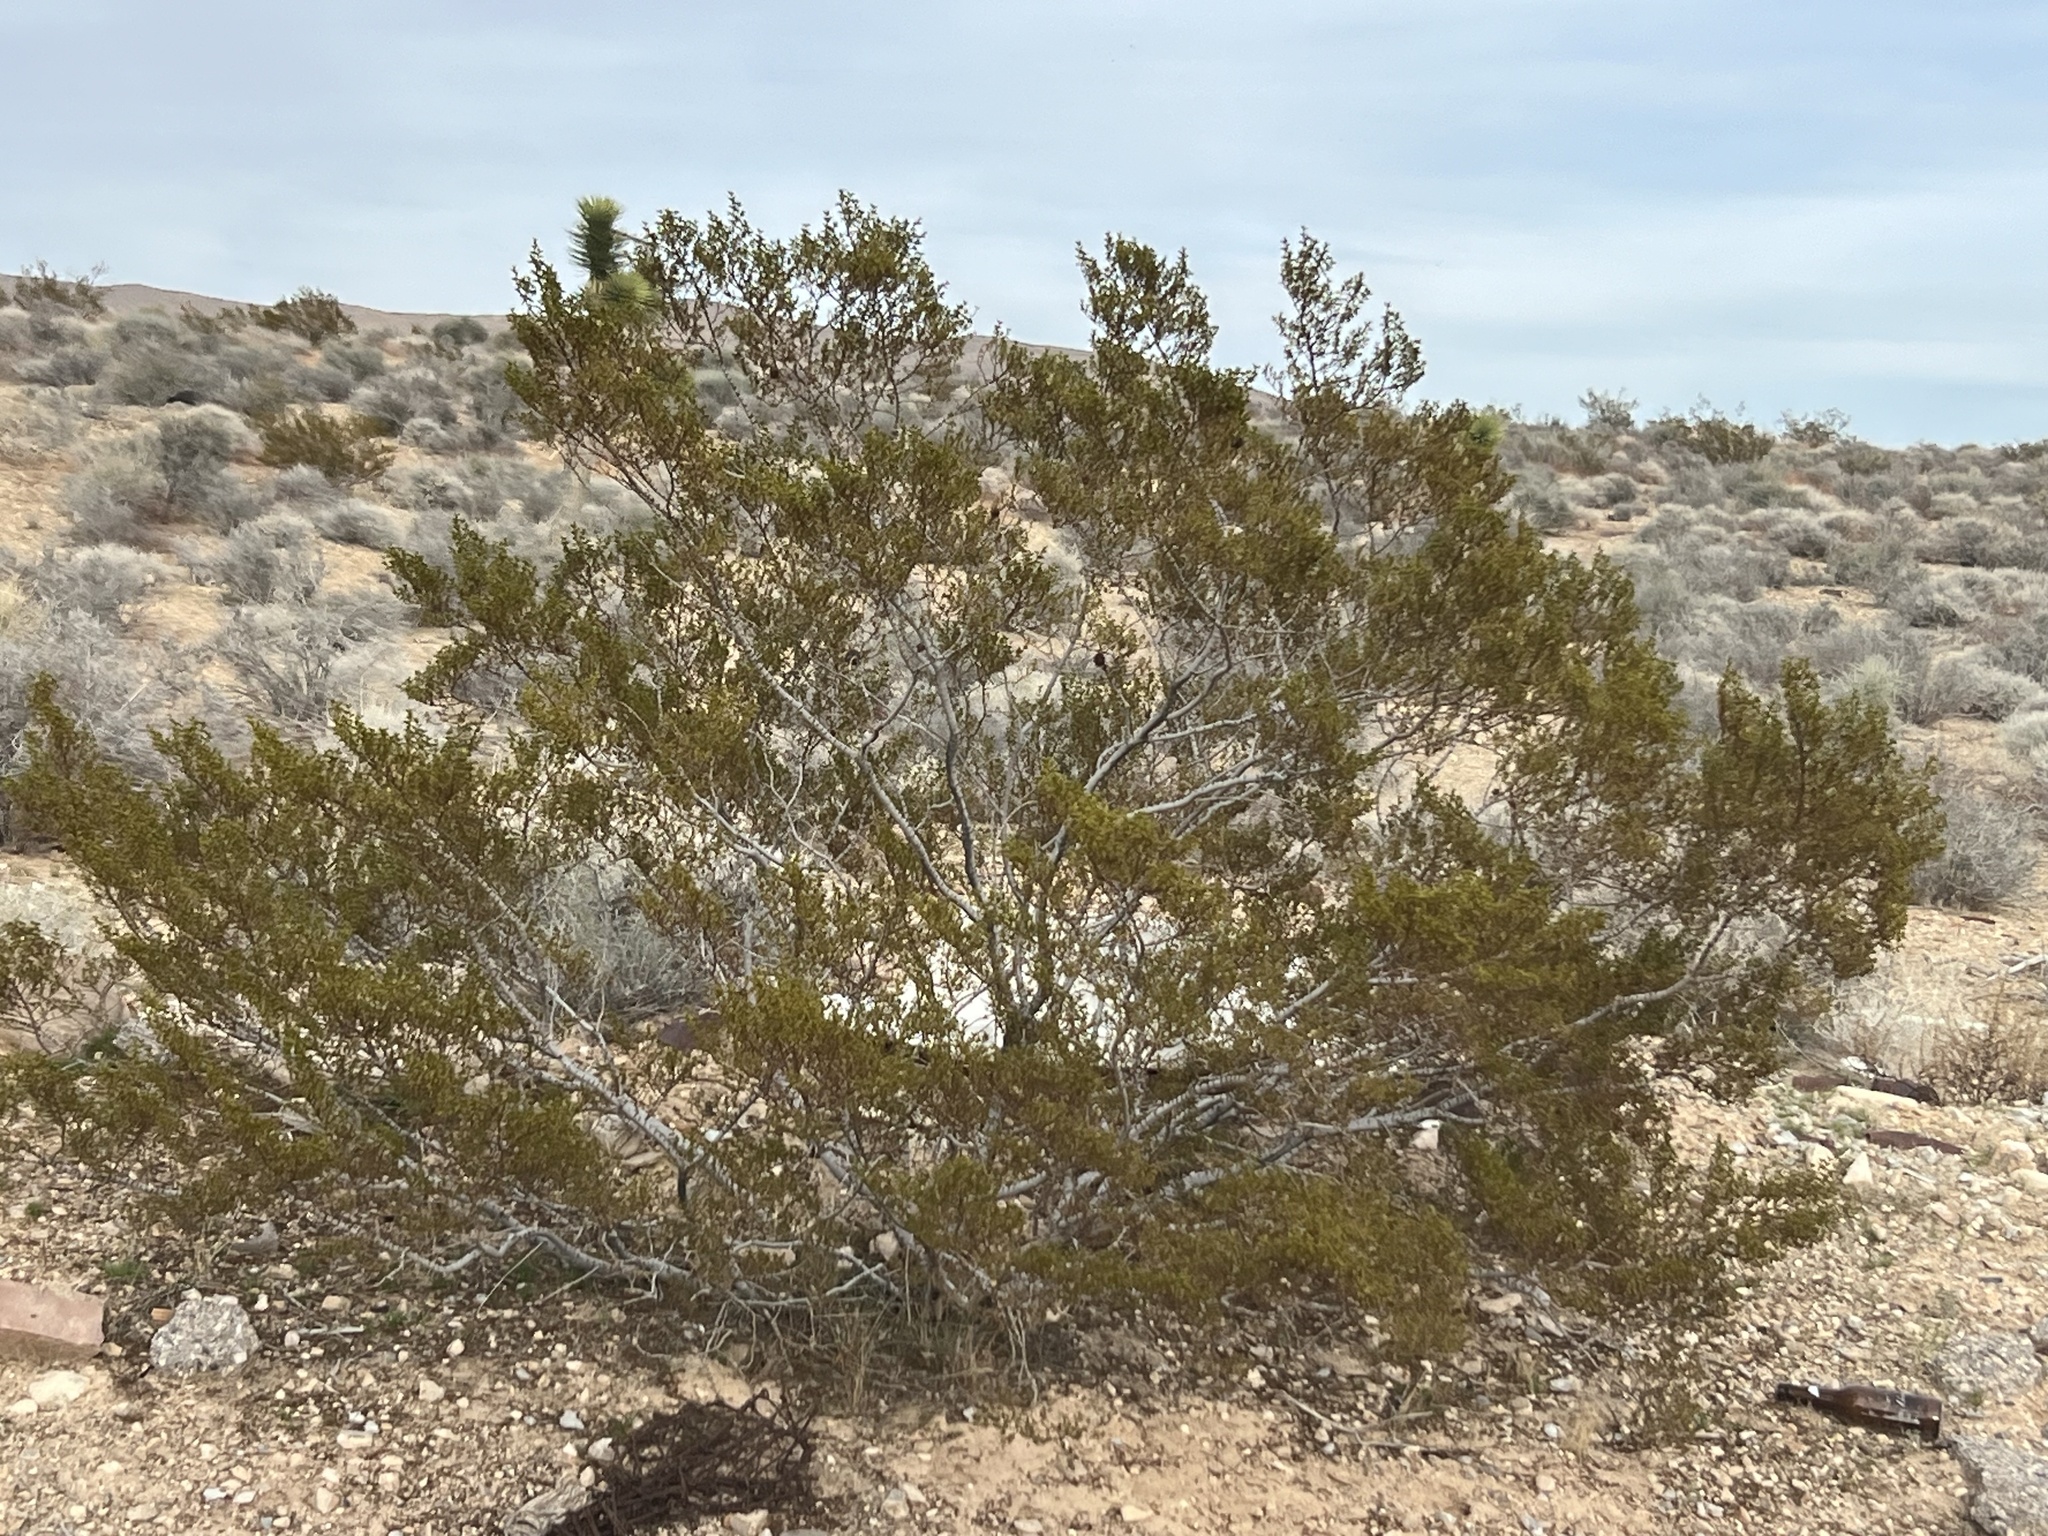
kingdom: Plantae
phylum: Tracheophyta
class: Magnoliopsida
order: Zygophyllales
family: Zygophyllaceae
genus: Larrea
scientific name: Larrea tridentata
